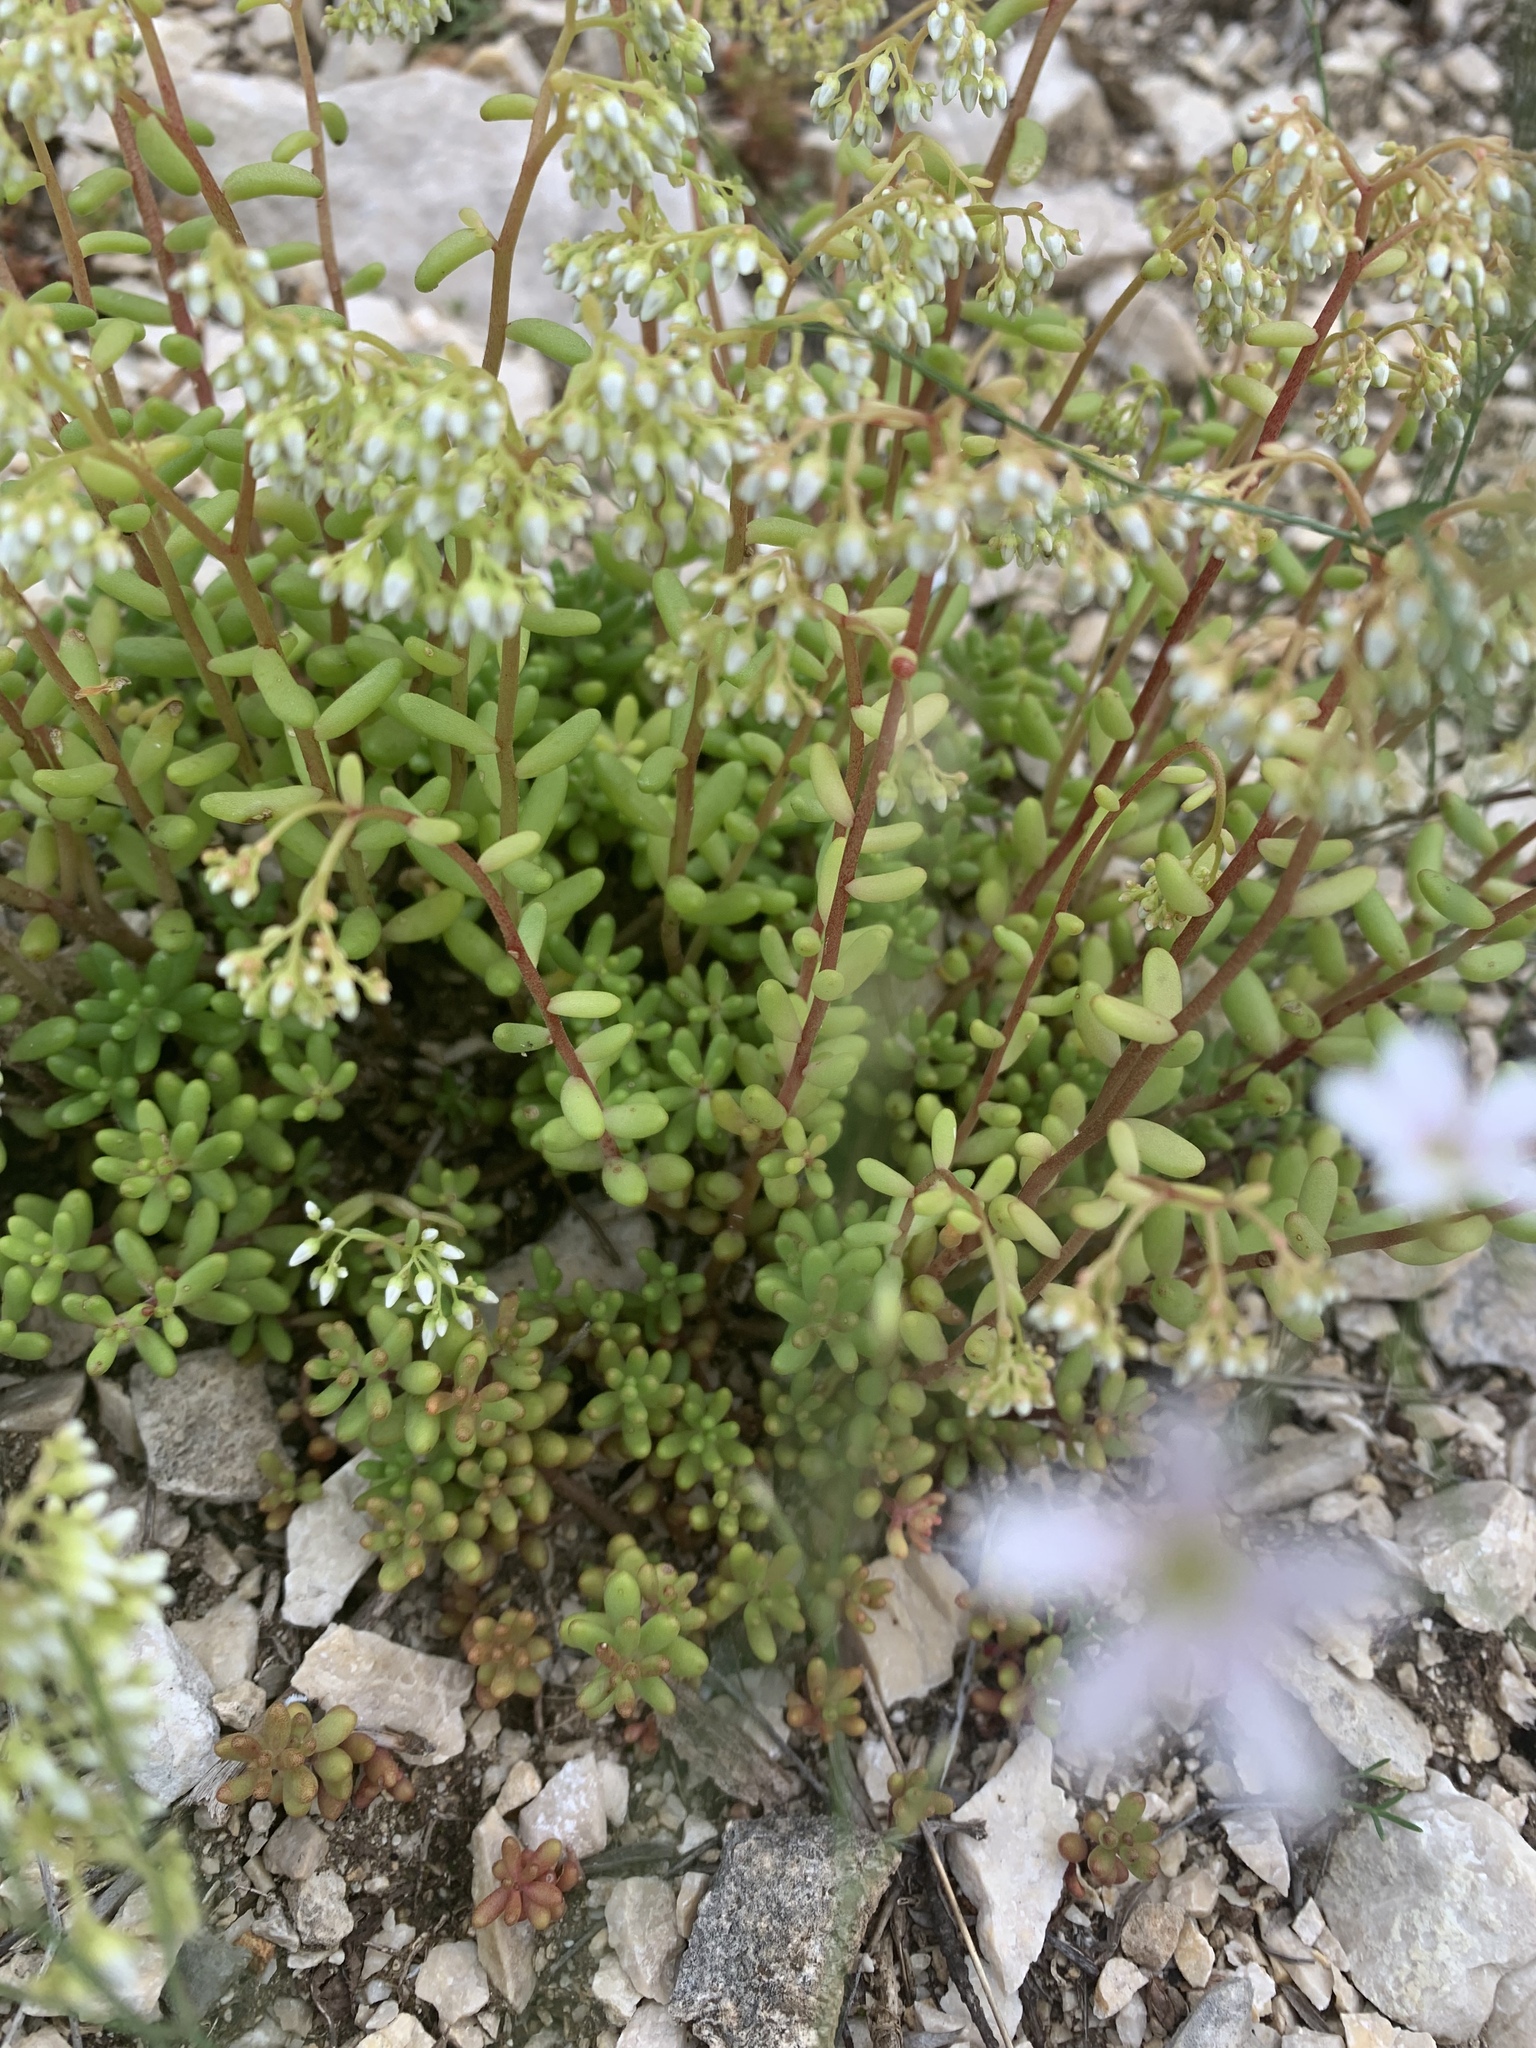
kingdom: Plantae
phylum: Tracheophyta
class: Magnoliopsida
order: Saxifragales
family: Crassulaceae
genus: Sedum
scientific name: Sedum album
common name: White stonecrop
